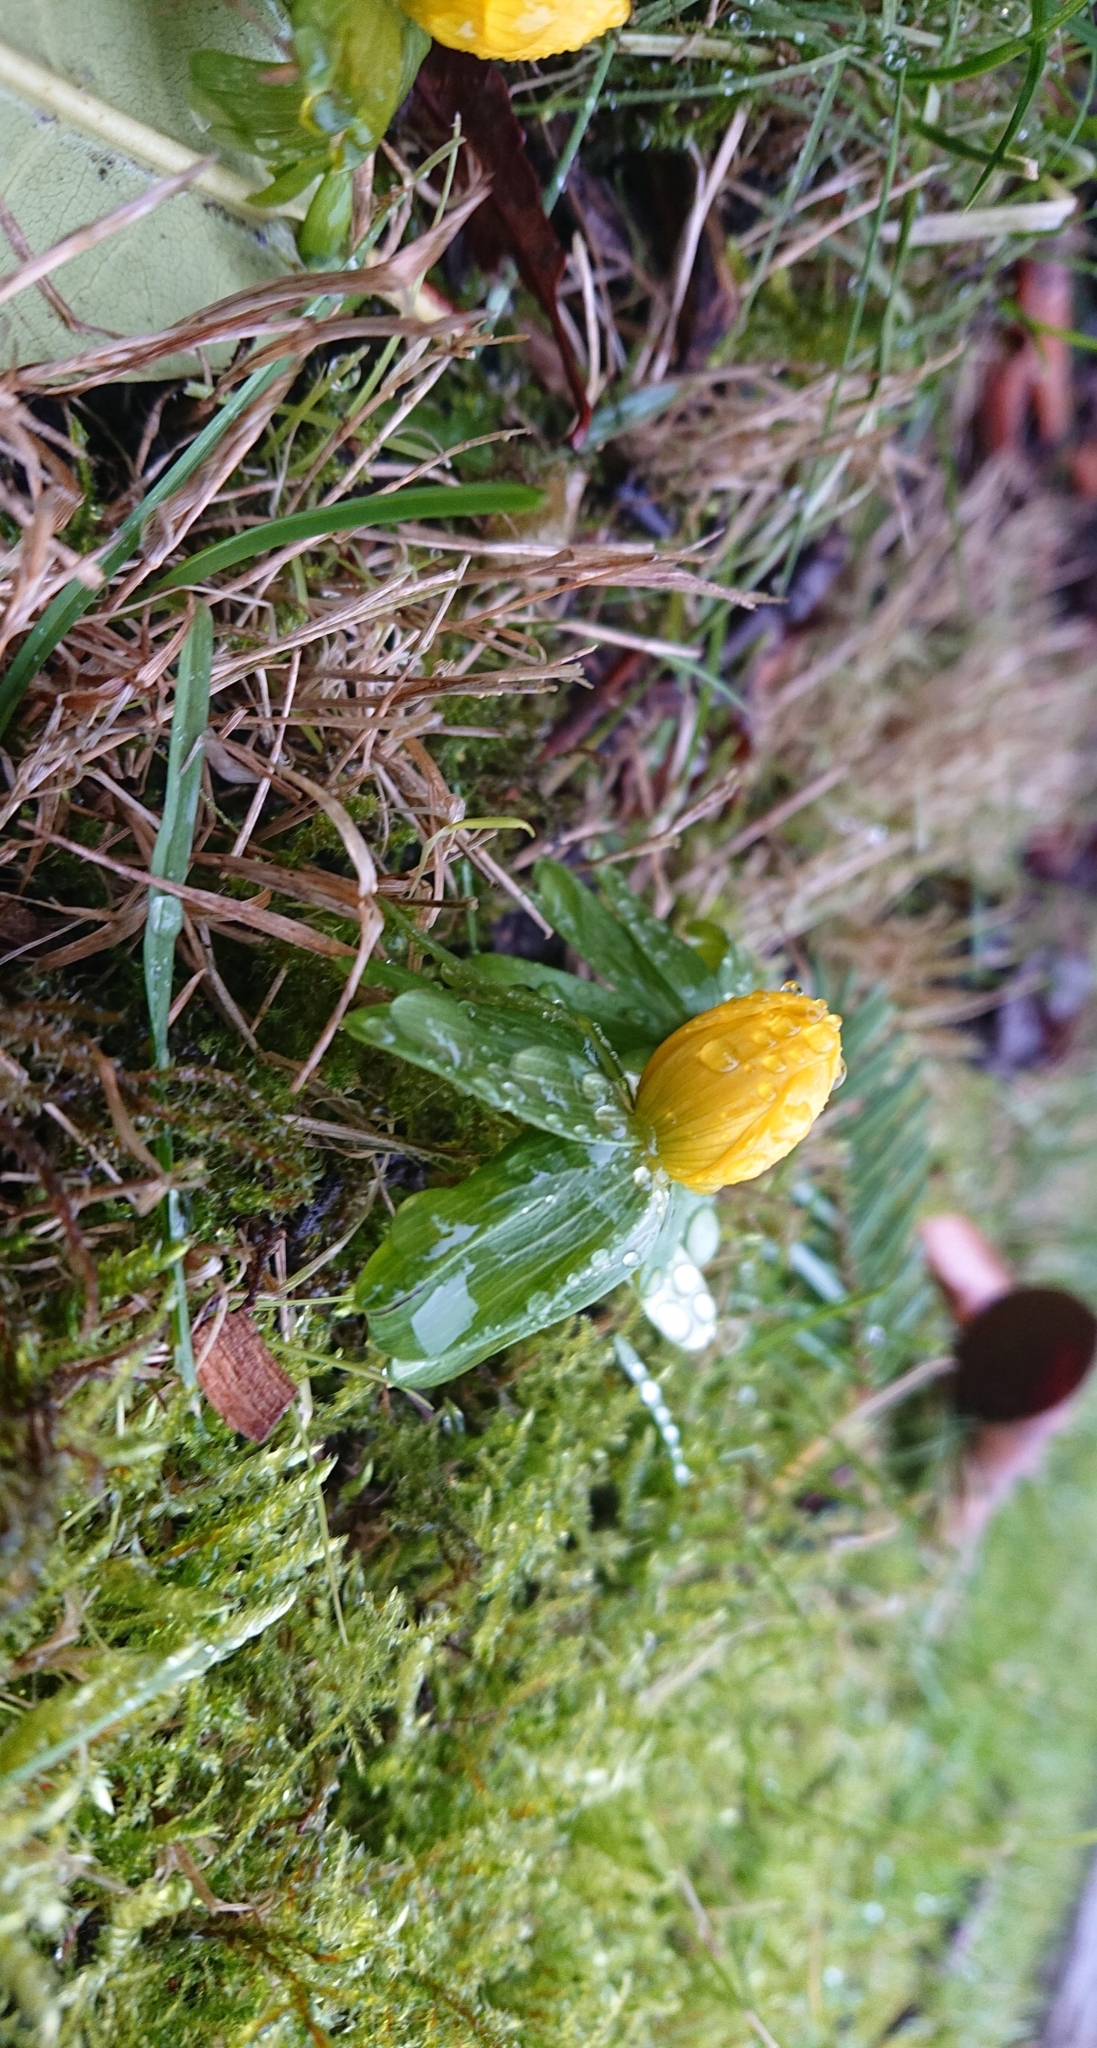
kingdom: Plantae
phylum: Tracheophyta
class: Magnoliopsida
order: Ranunculales
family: Ranunculaceae
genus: Eranthis
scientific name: Eranthis hyemalis
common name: Winter aconite
